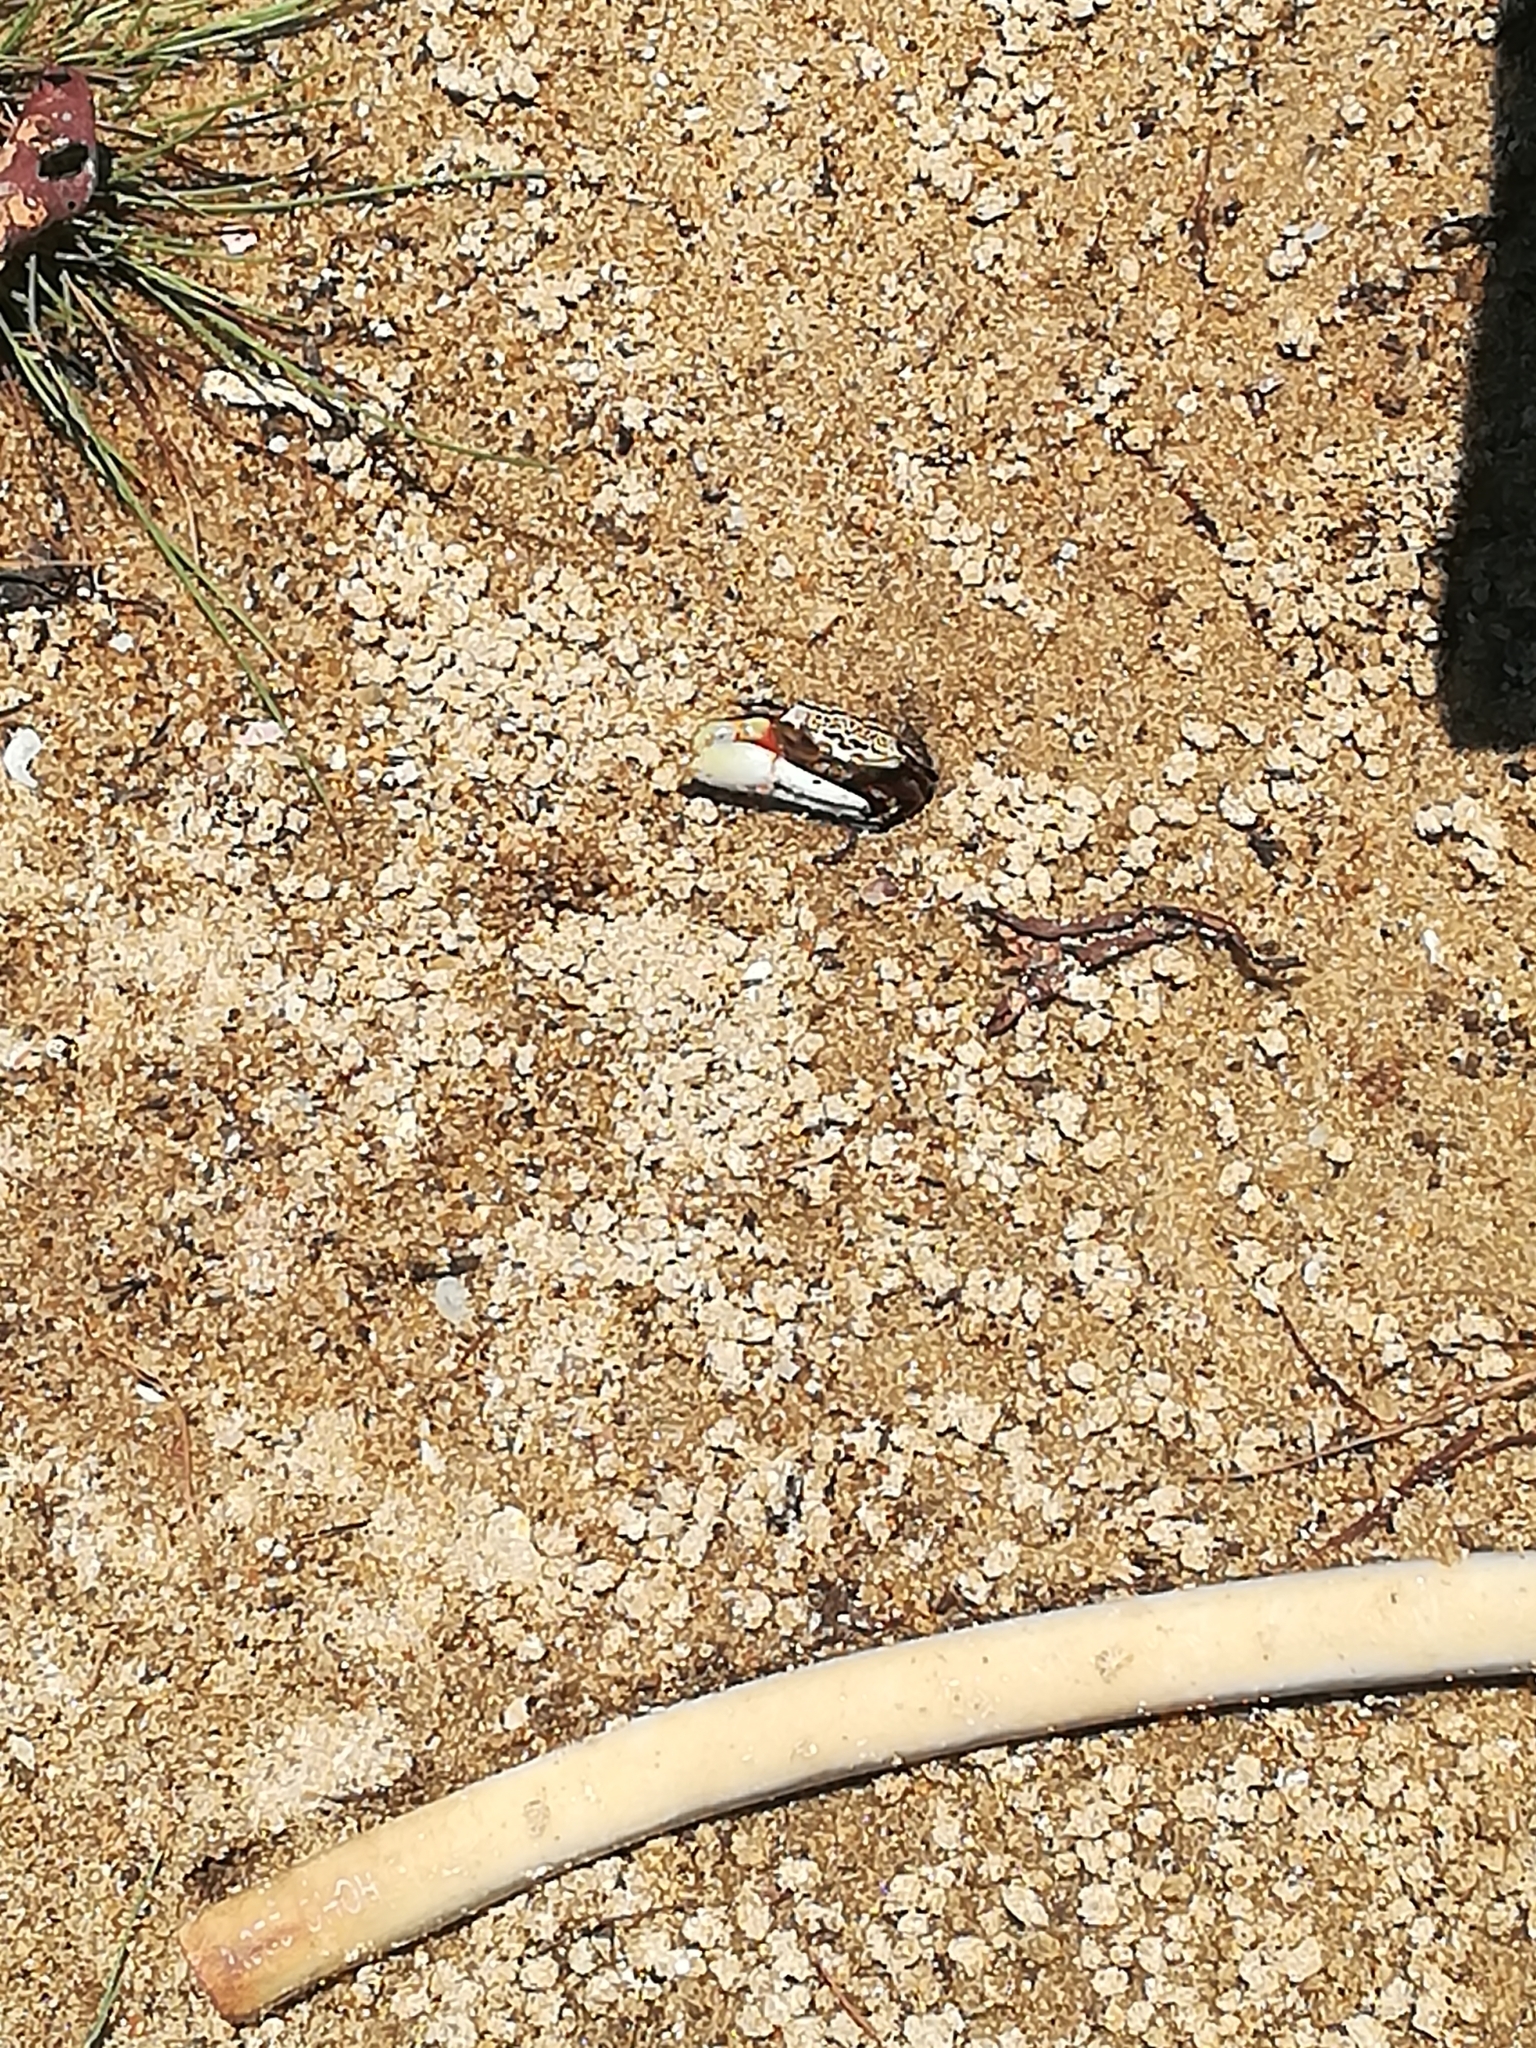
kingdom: Animalia
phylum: Arthropoda
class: Malacostraca
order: Decapoda
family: Ocypodidae
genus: Austruca
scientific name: Austruca annulipes
